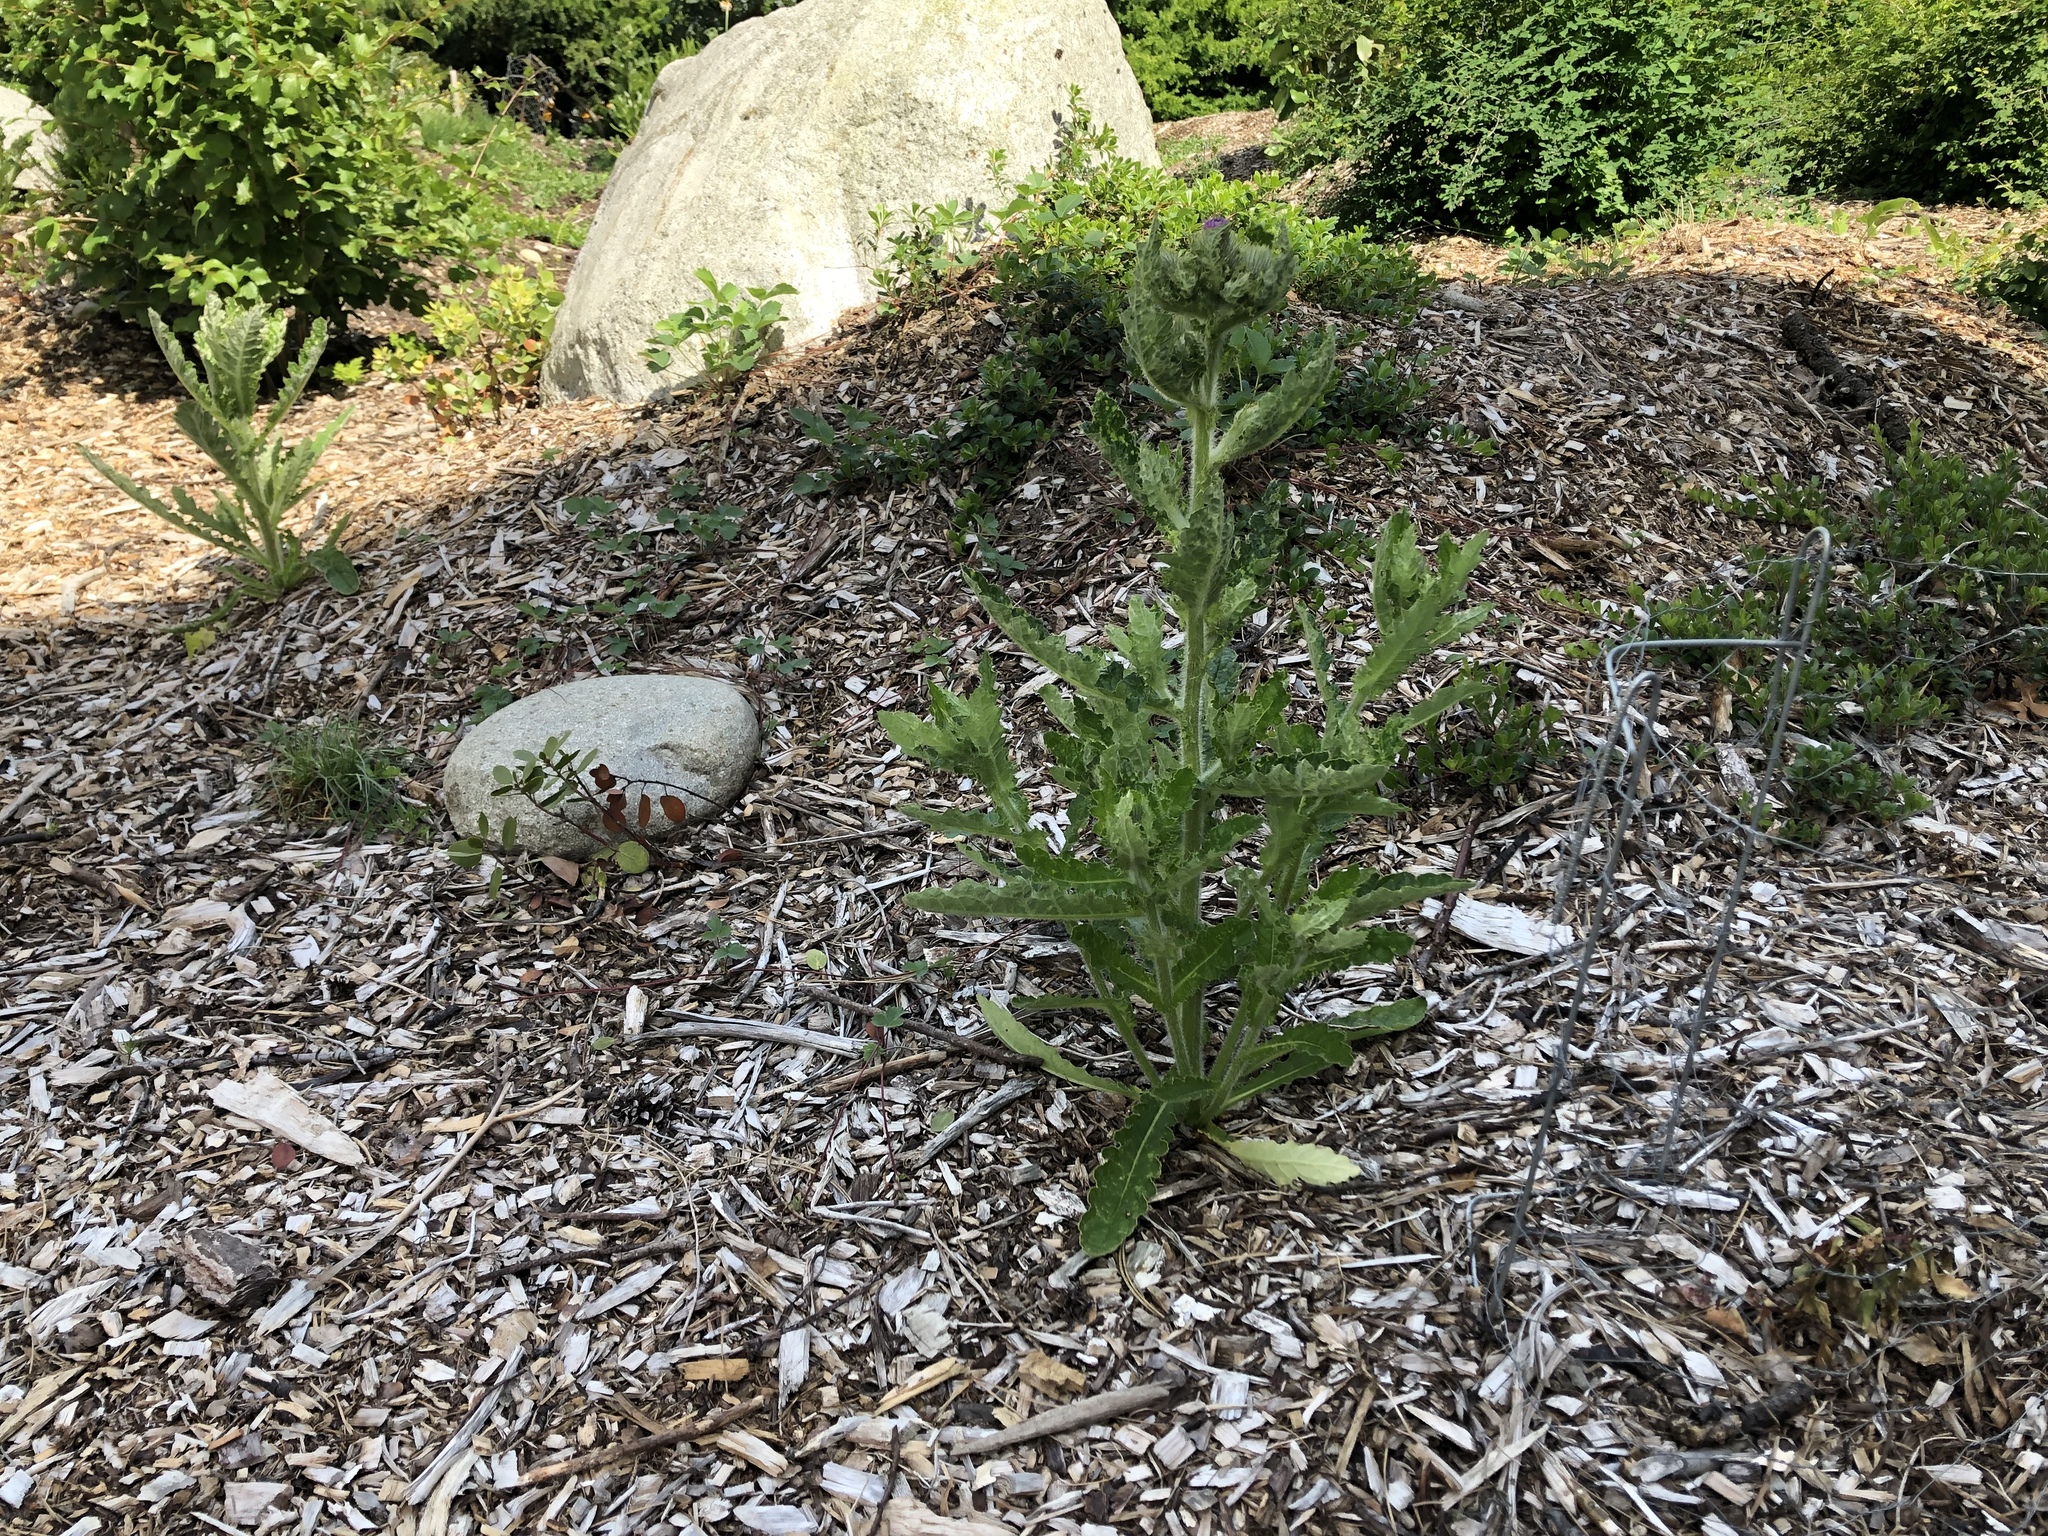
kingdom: Plantae
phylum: Tracheophyta
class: Magnoliopsida
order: Asterales
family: Asteraceae
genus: Cirsium
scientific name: Cirsium brevistylum
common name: Indian thistle
